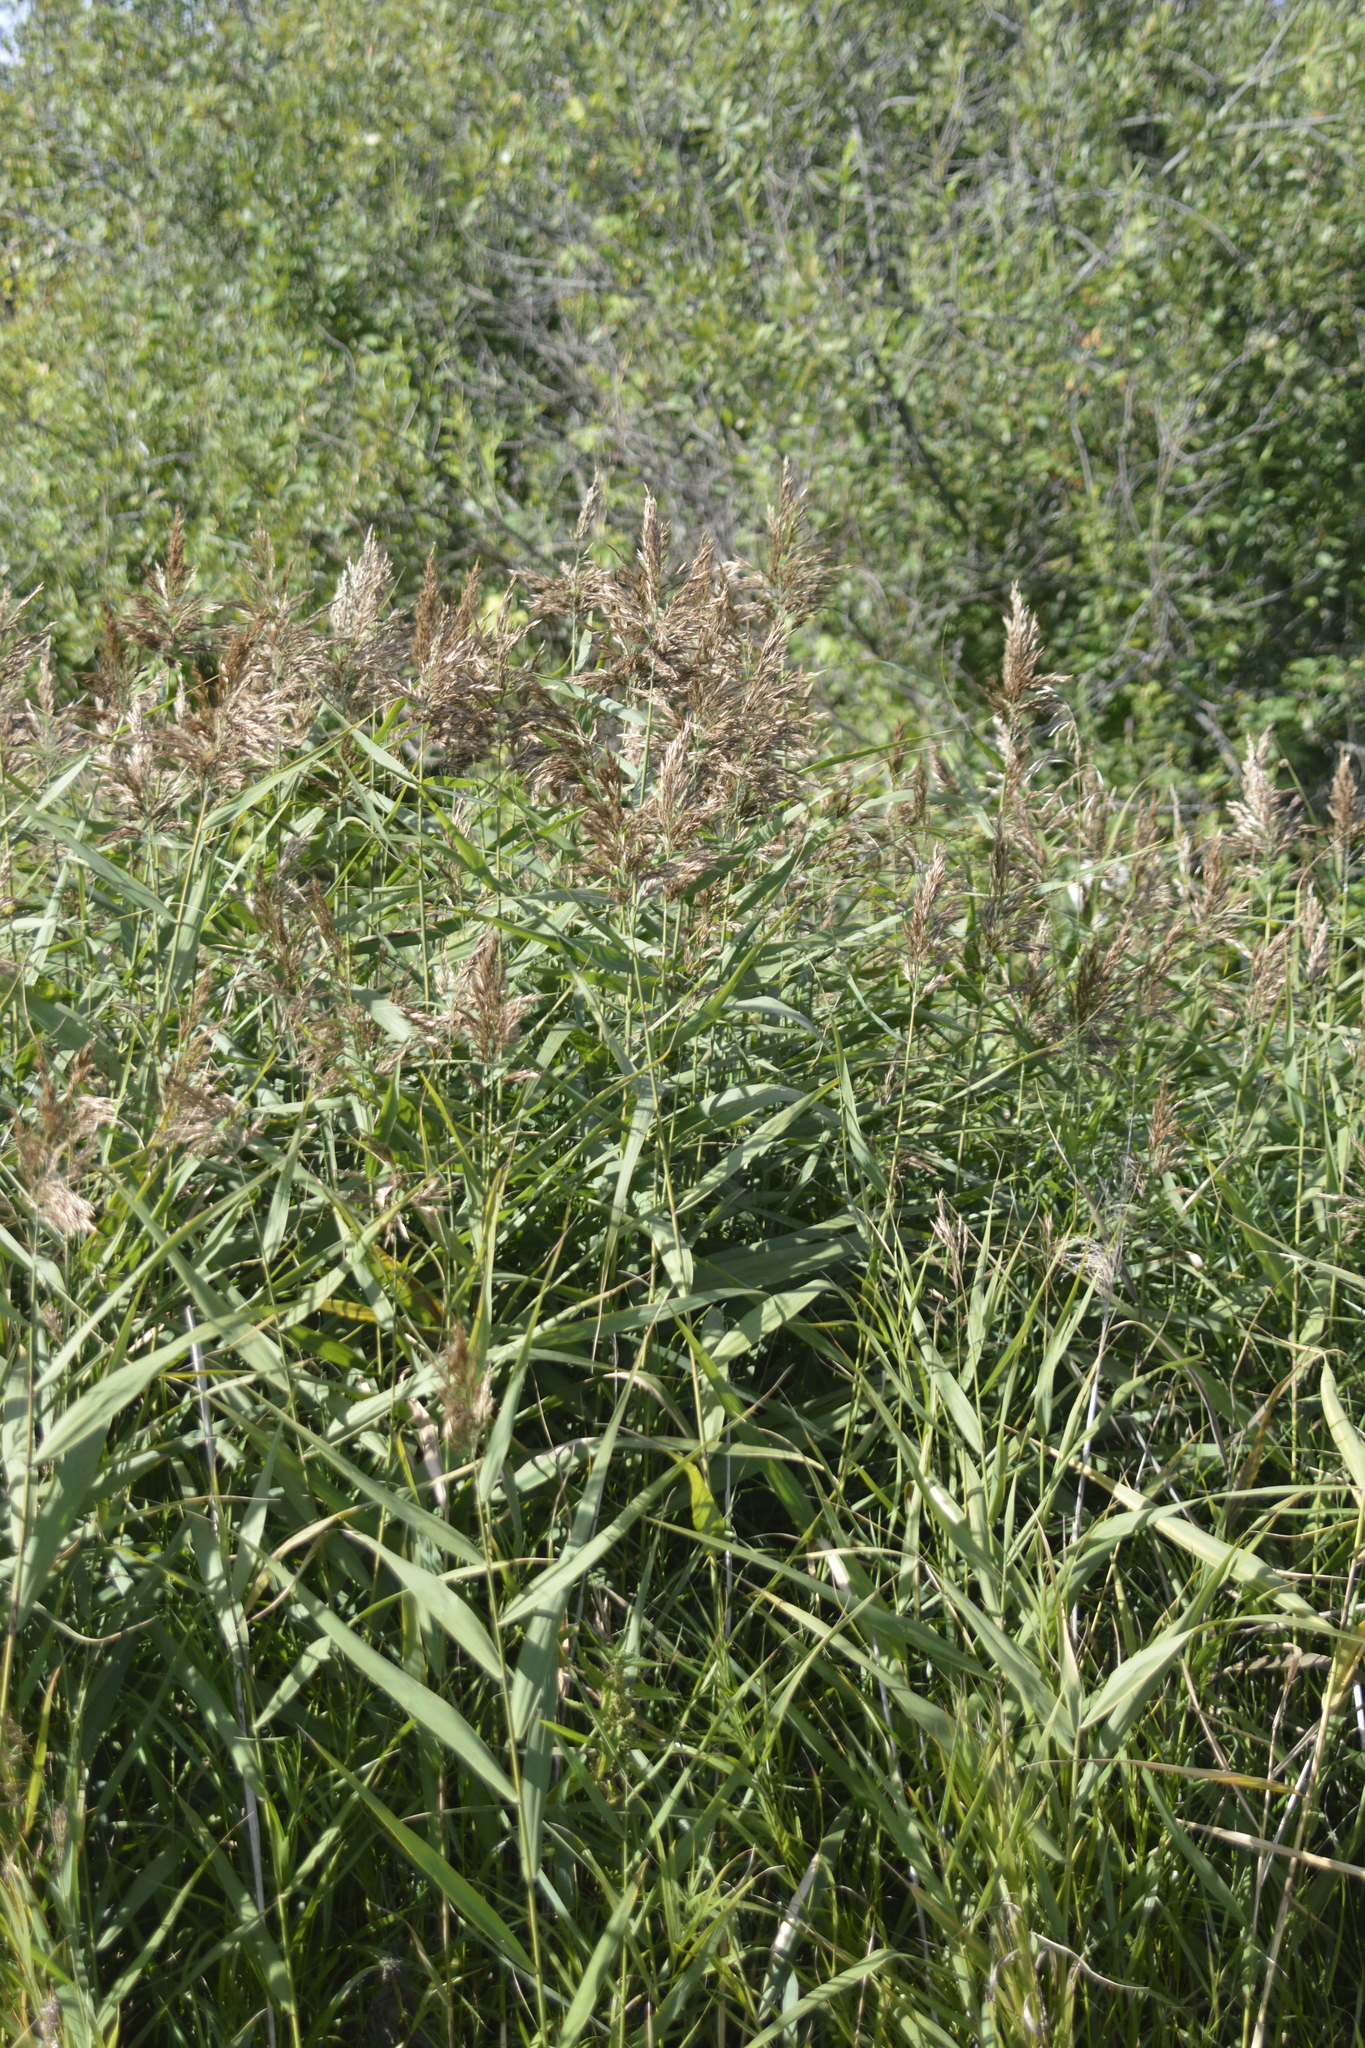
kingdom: Plantae
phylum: Tracheophyta
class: Liliopsida
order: Poales
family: Poaceae
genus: Phragmites
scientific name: Phragmites australis
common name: Common reed
